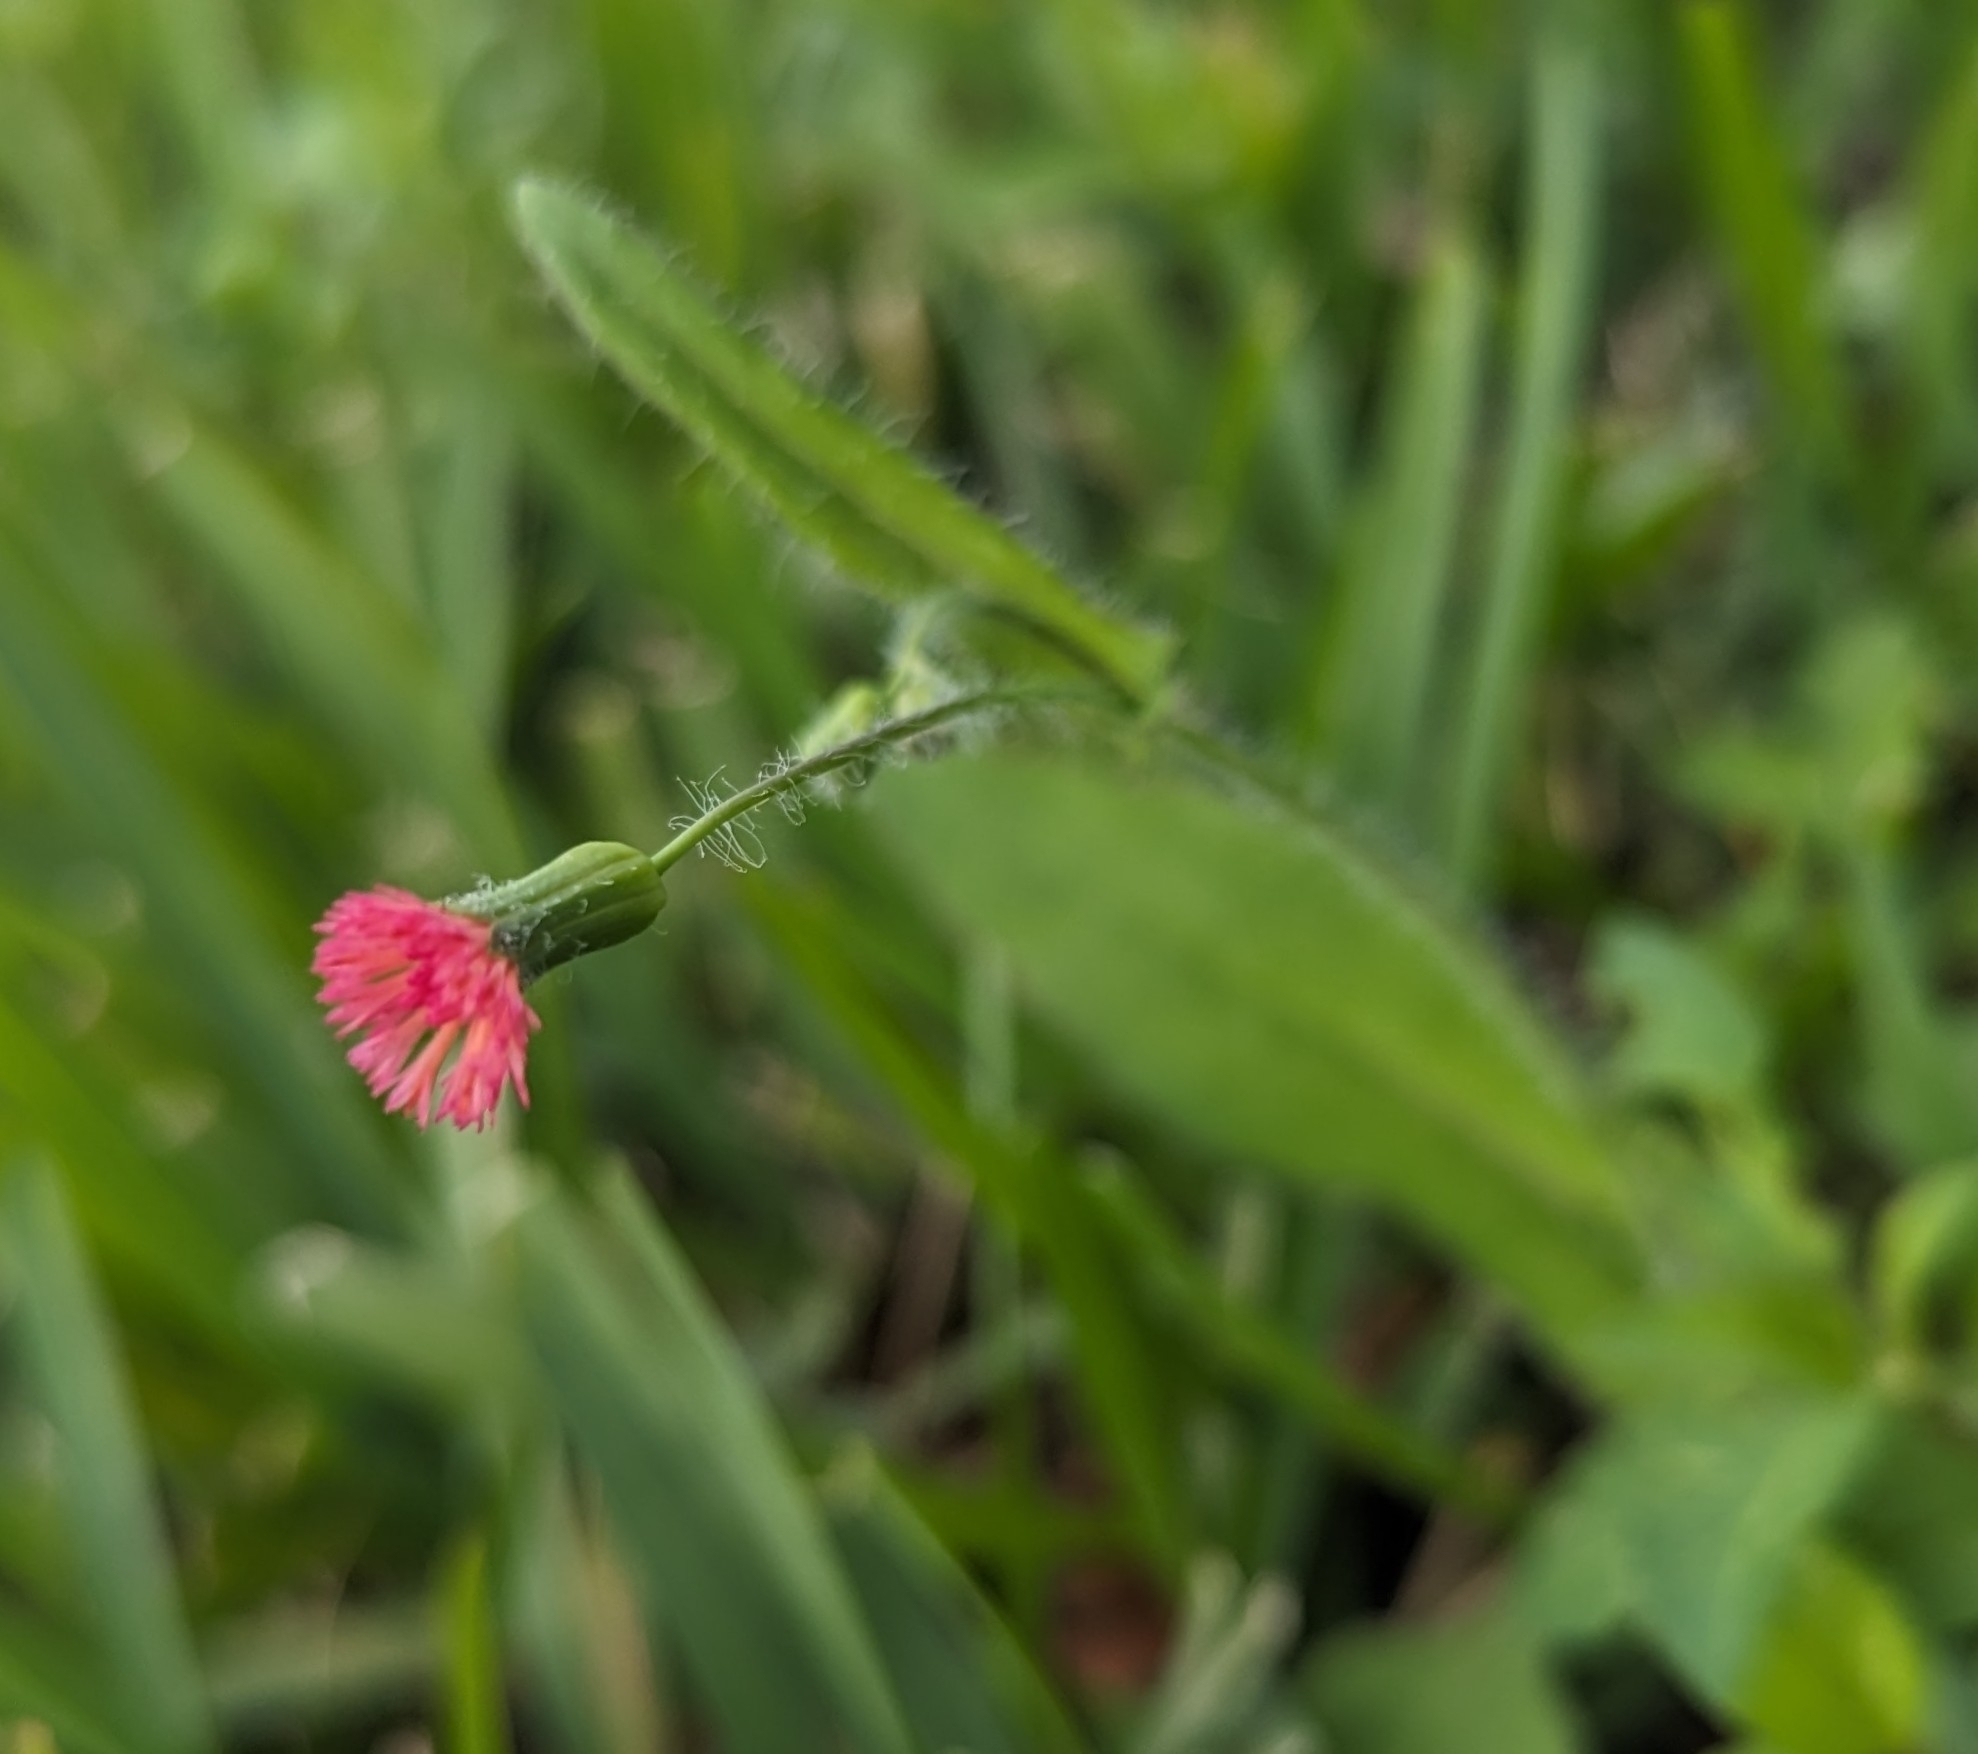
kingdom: Plantae
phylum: Tracheophyta
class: Magnoliopsida
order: Asterales
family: Asteraceae
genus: Emilia
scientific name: Emilia fosbergii
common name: Florida tasselflower
